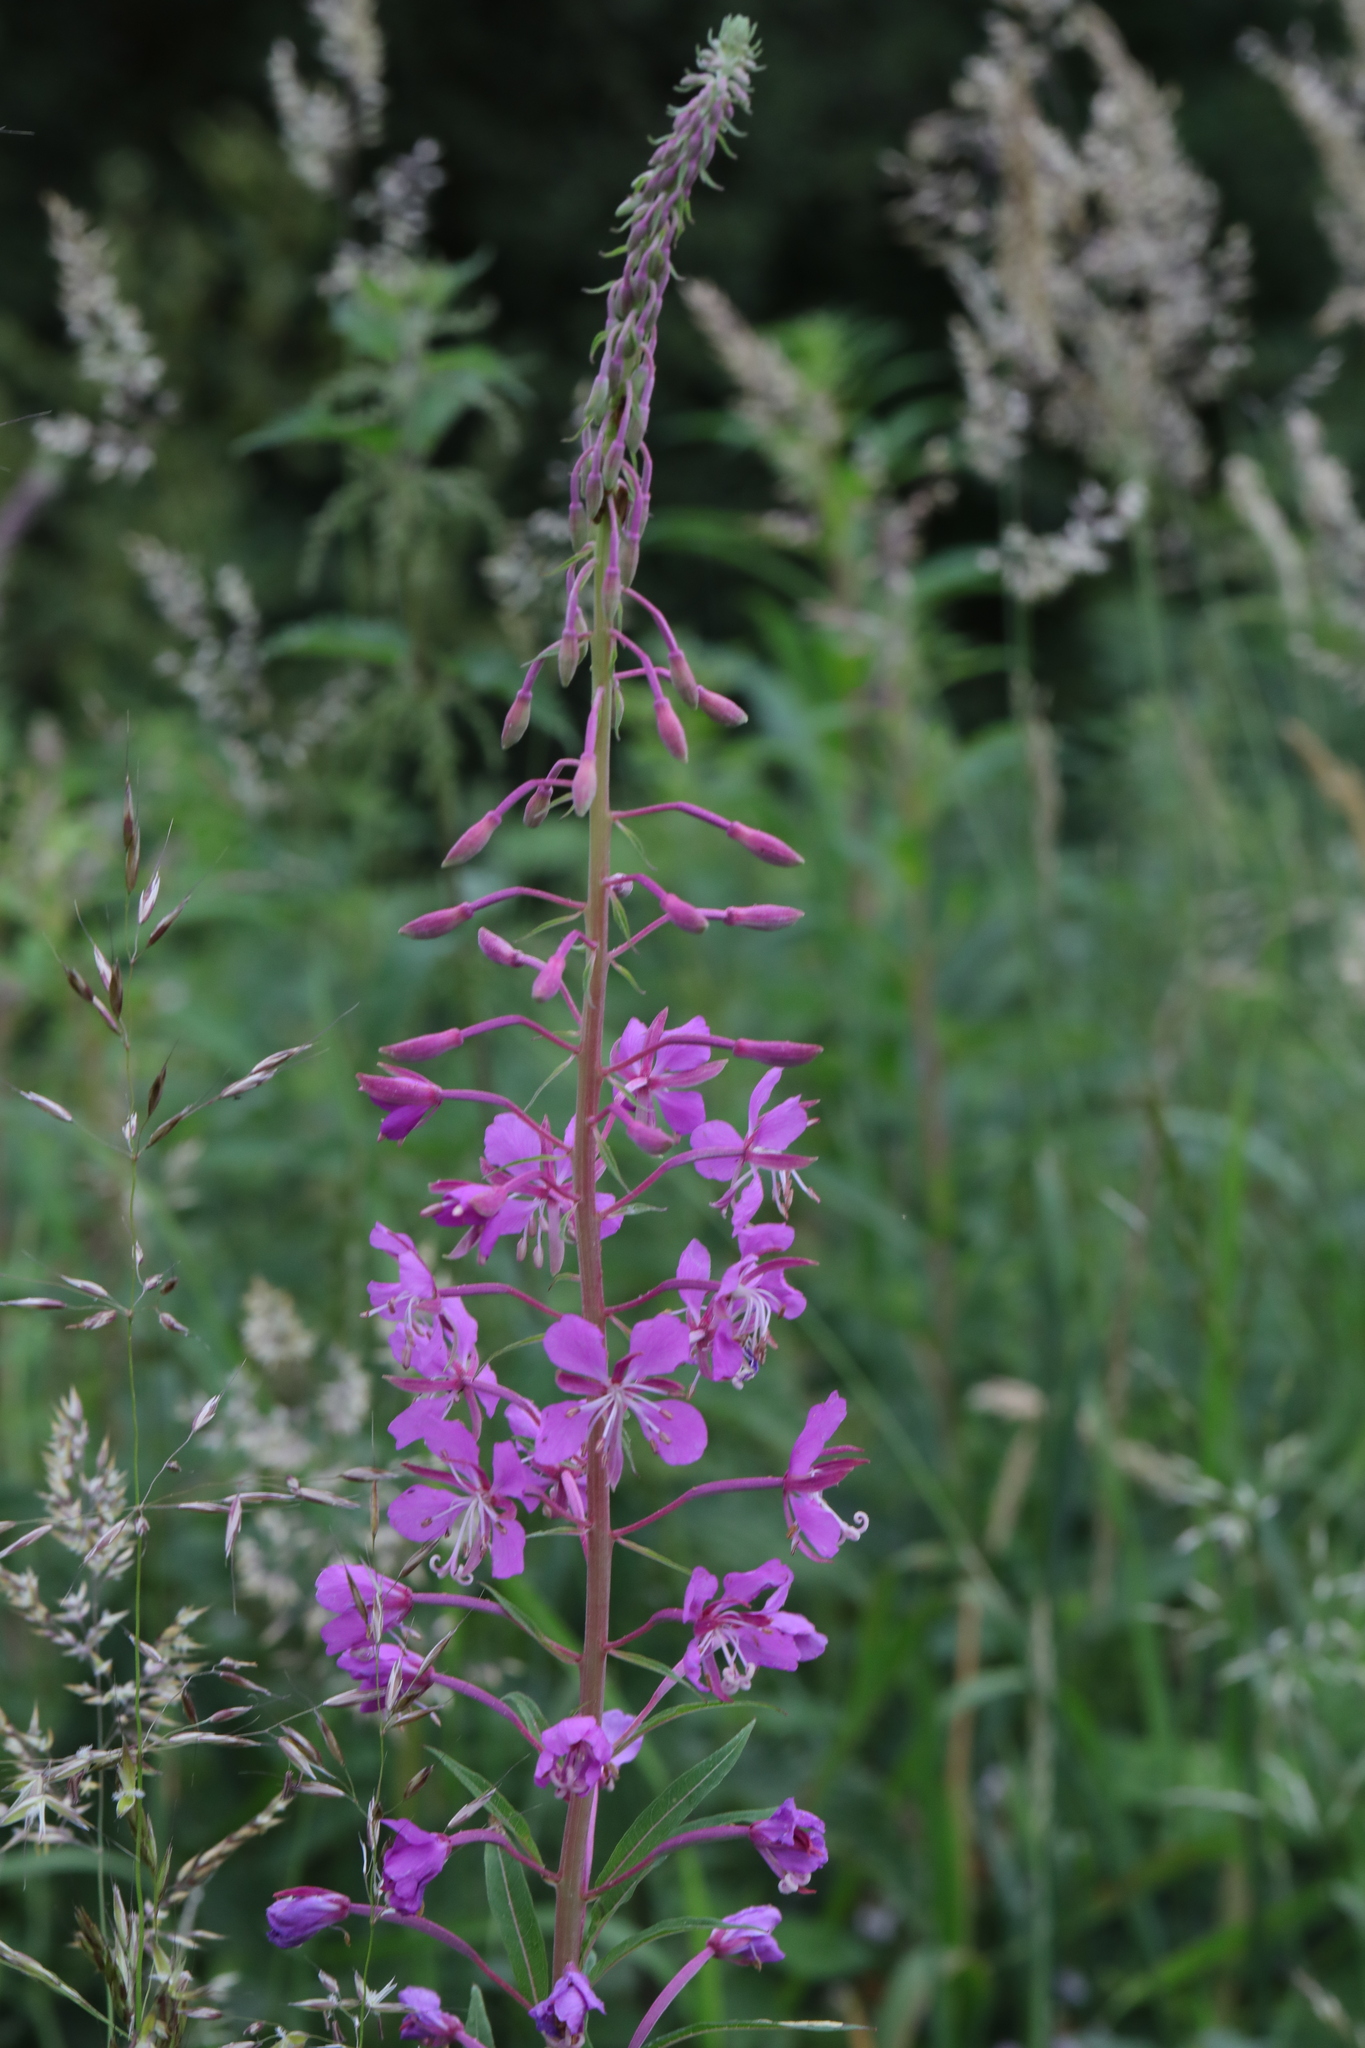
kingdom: Plantae
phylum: Tracheophyta
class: Magnoliopsida
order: Myrtales
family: Onagraceae
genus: Chamaenerion
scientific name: Chamaenerion angustifolium
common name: Fireweed
